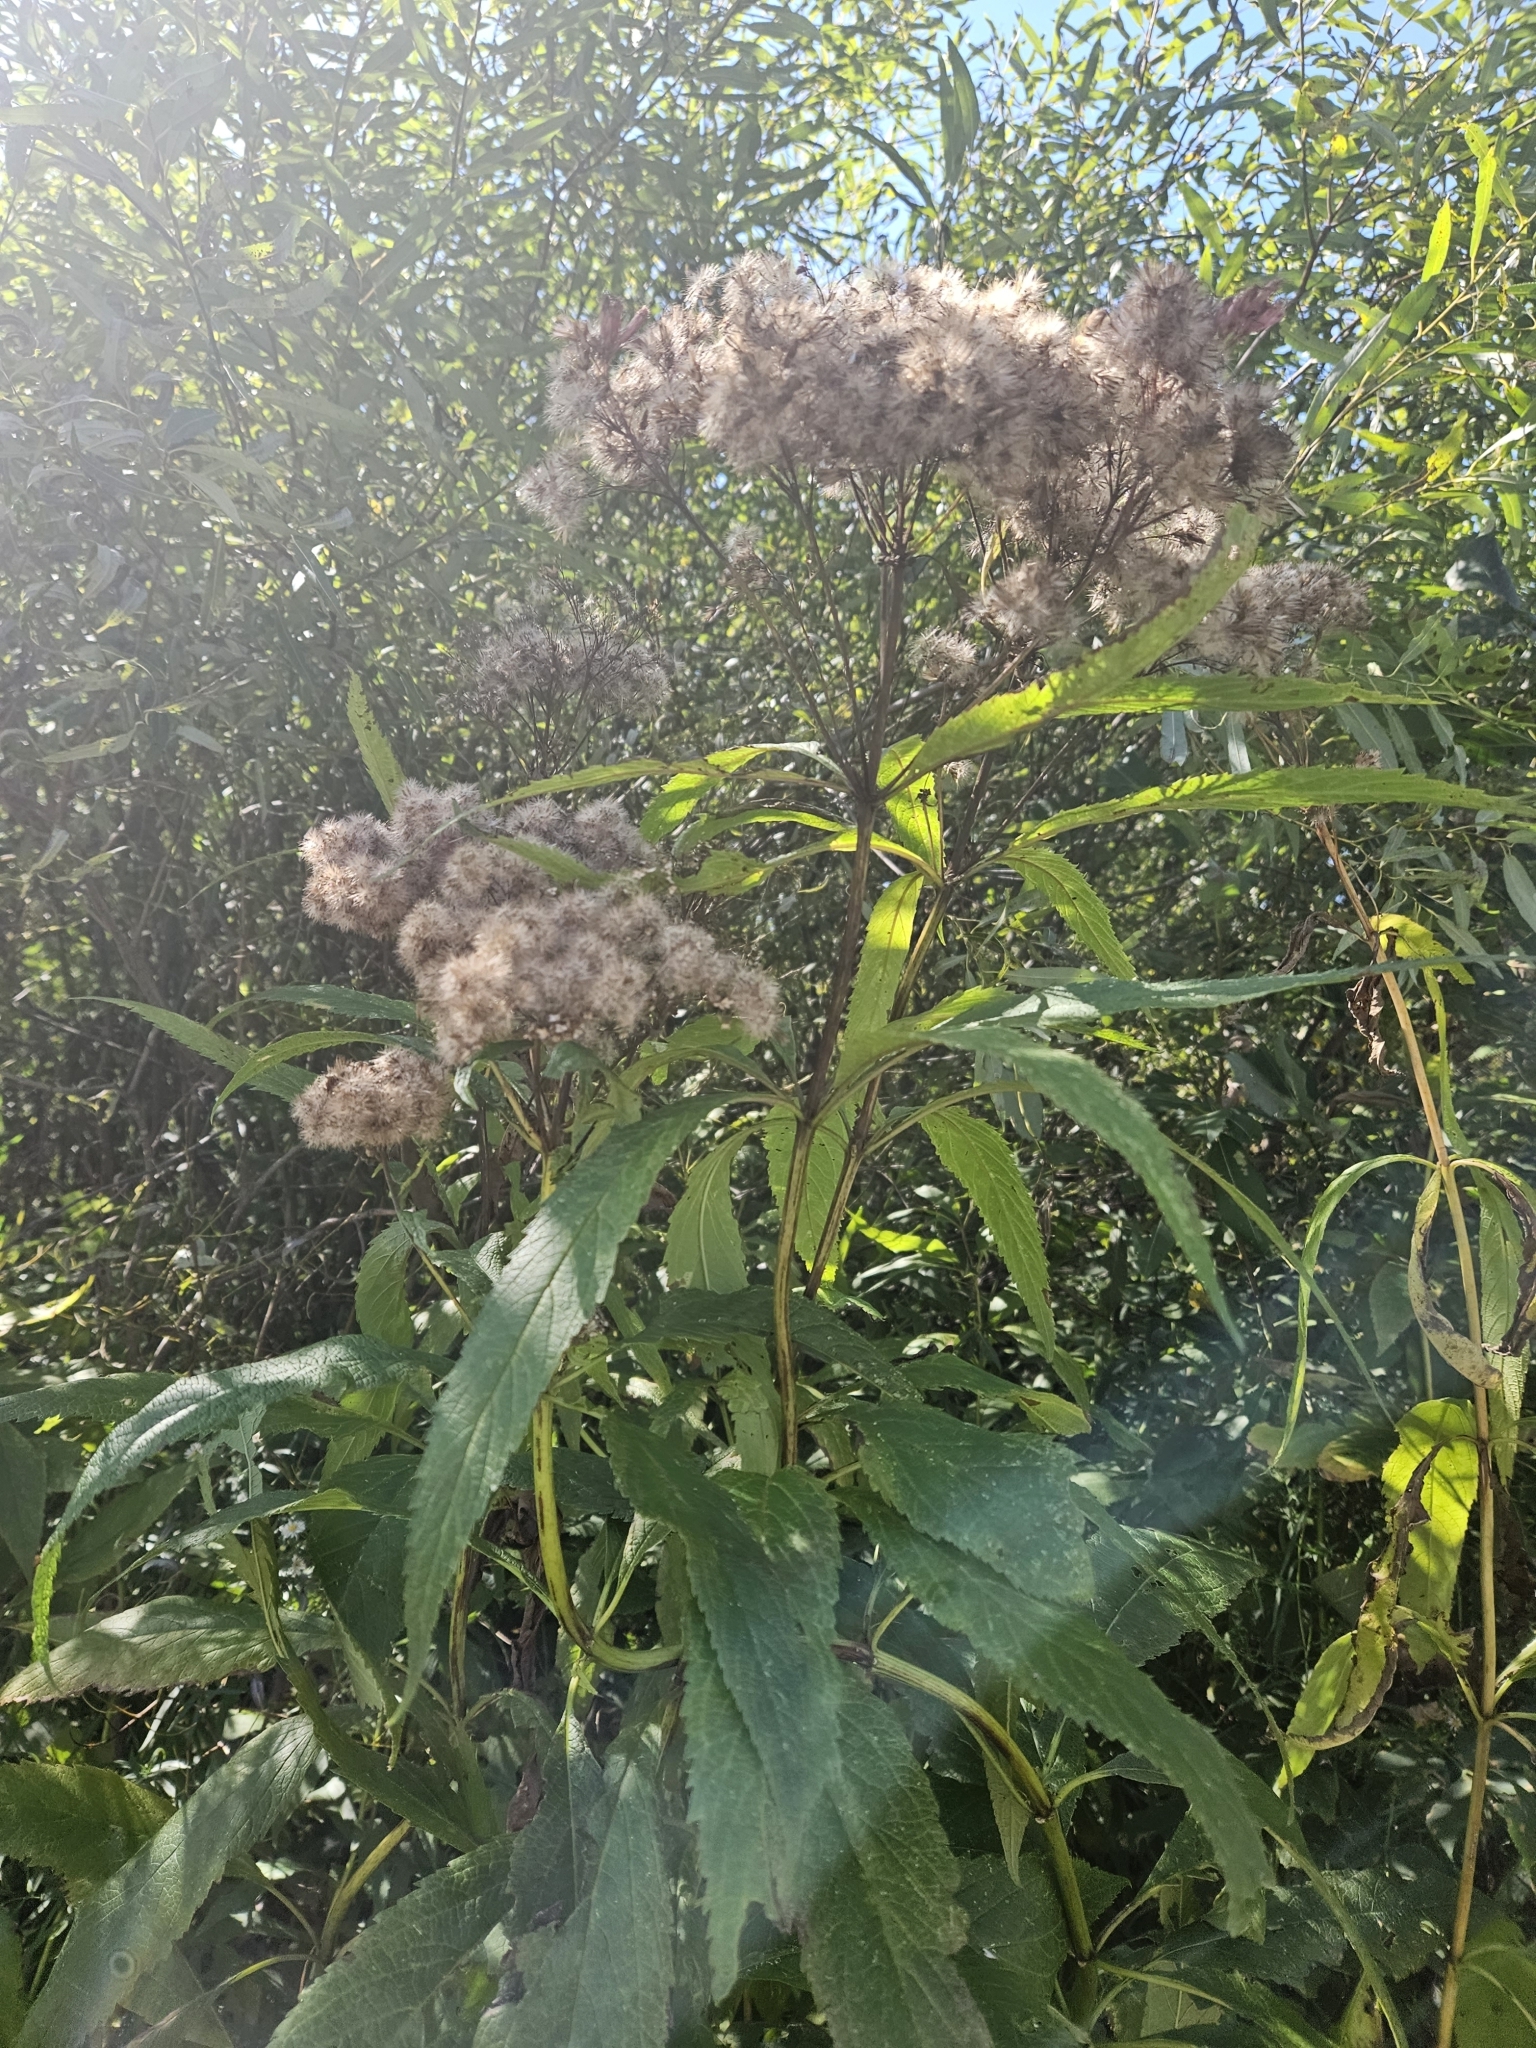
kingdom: Plantae
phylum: Tracheophyta
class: Magnoliopsida
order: Asterales
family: Asteraceae
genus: Eutrochium
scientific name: Eutrochium maculatum
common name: Spotted joe pye weed
